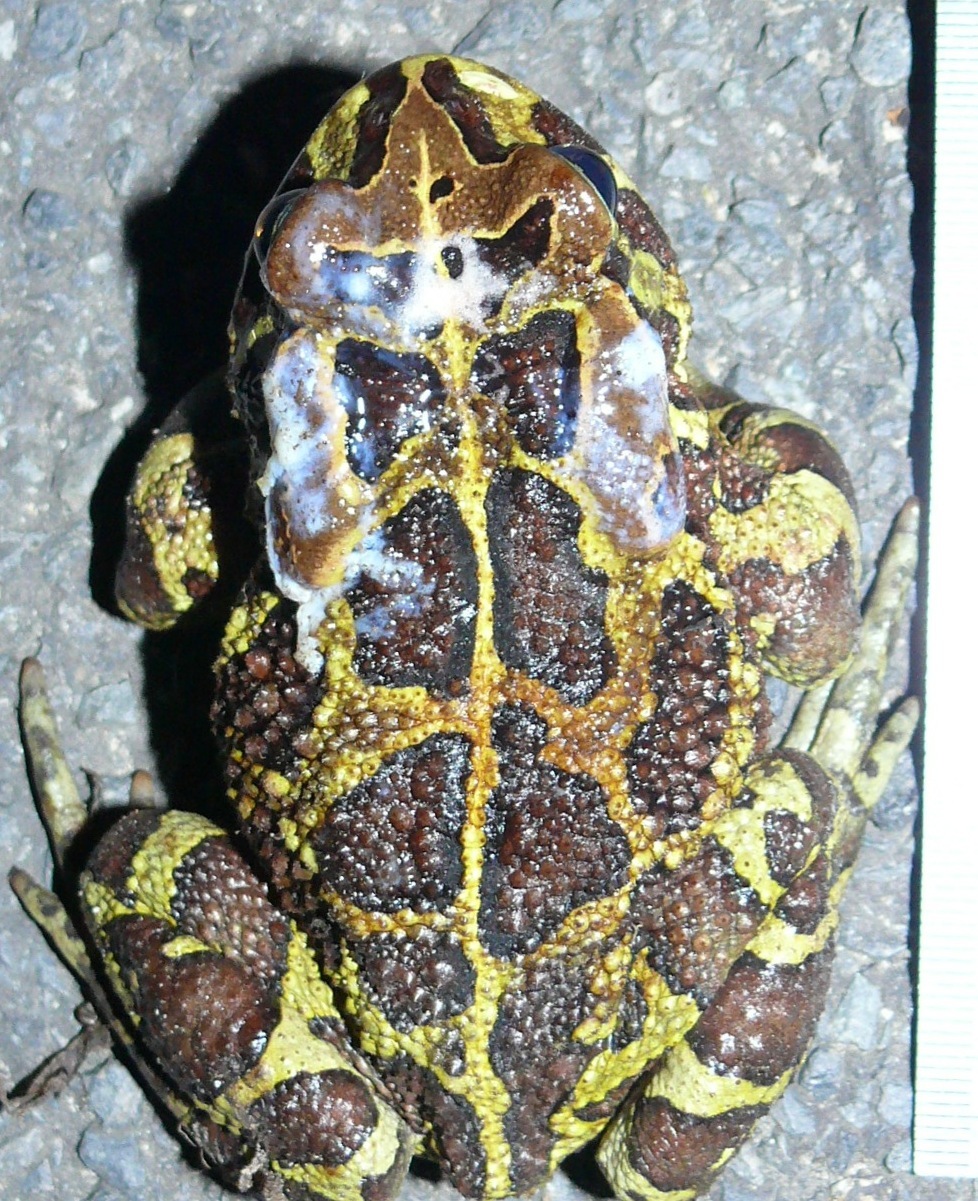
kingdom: Animalia
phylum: Chordata
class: Amphibia
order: Anura
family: Bufonidae
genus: Sclerophrys
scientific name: Sclerophrys pantherina
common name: Panther toad
